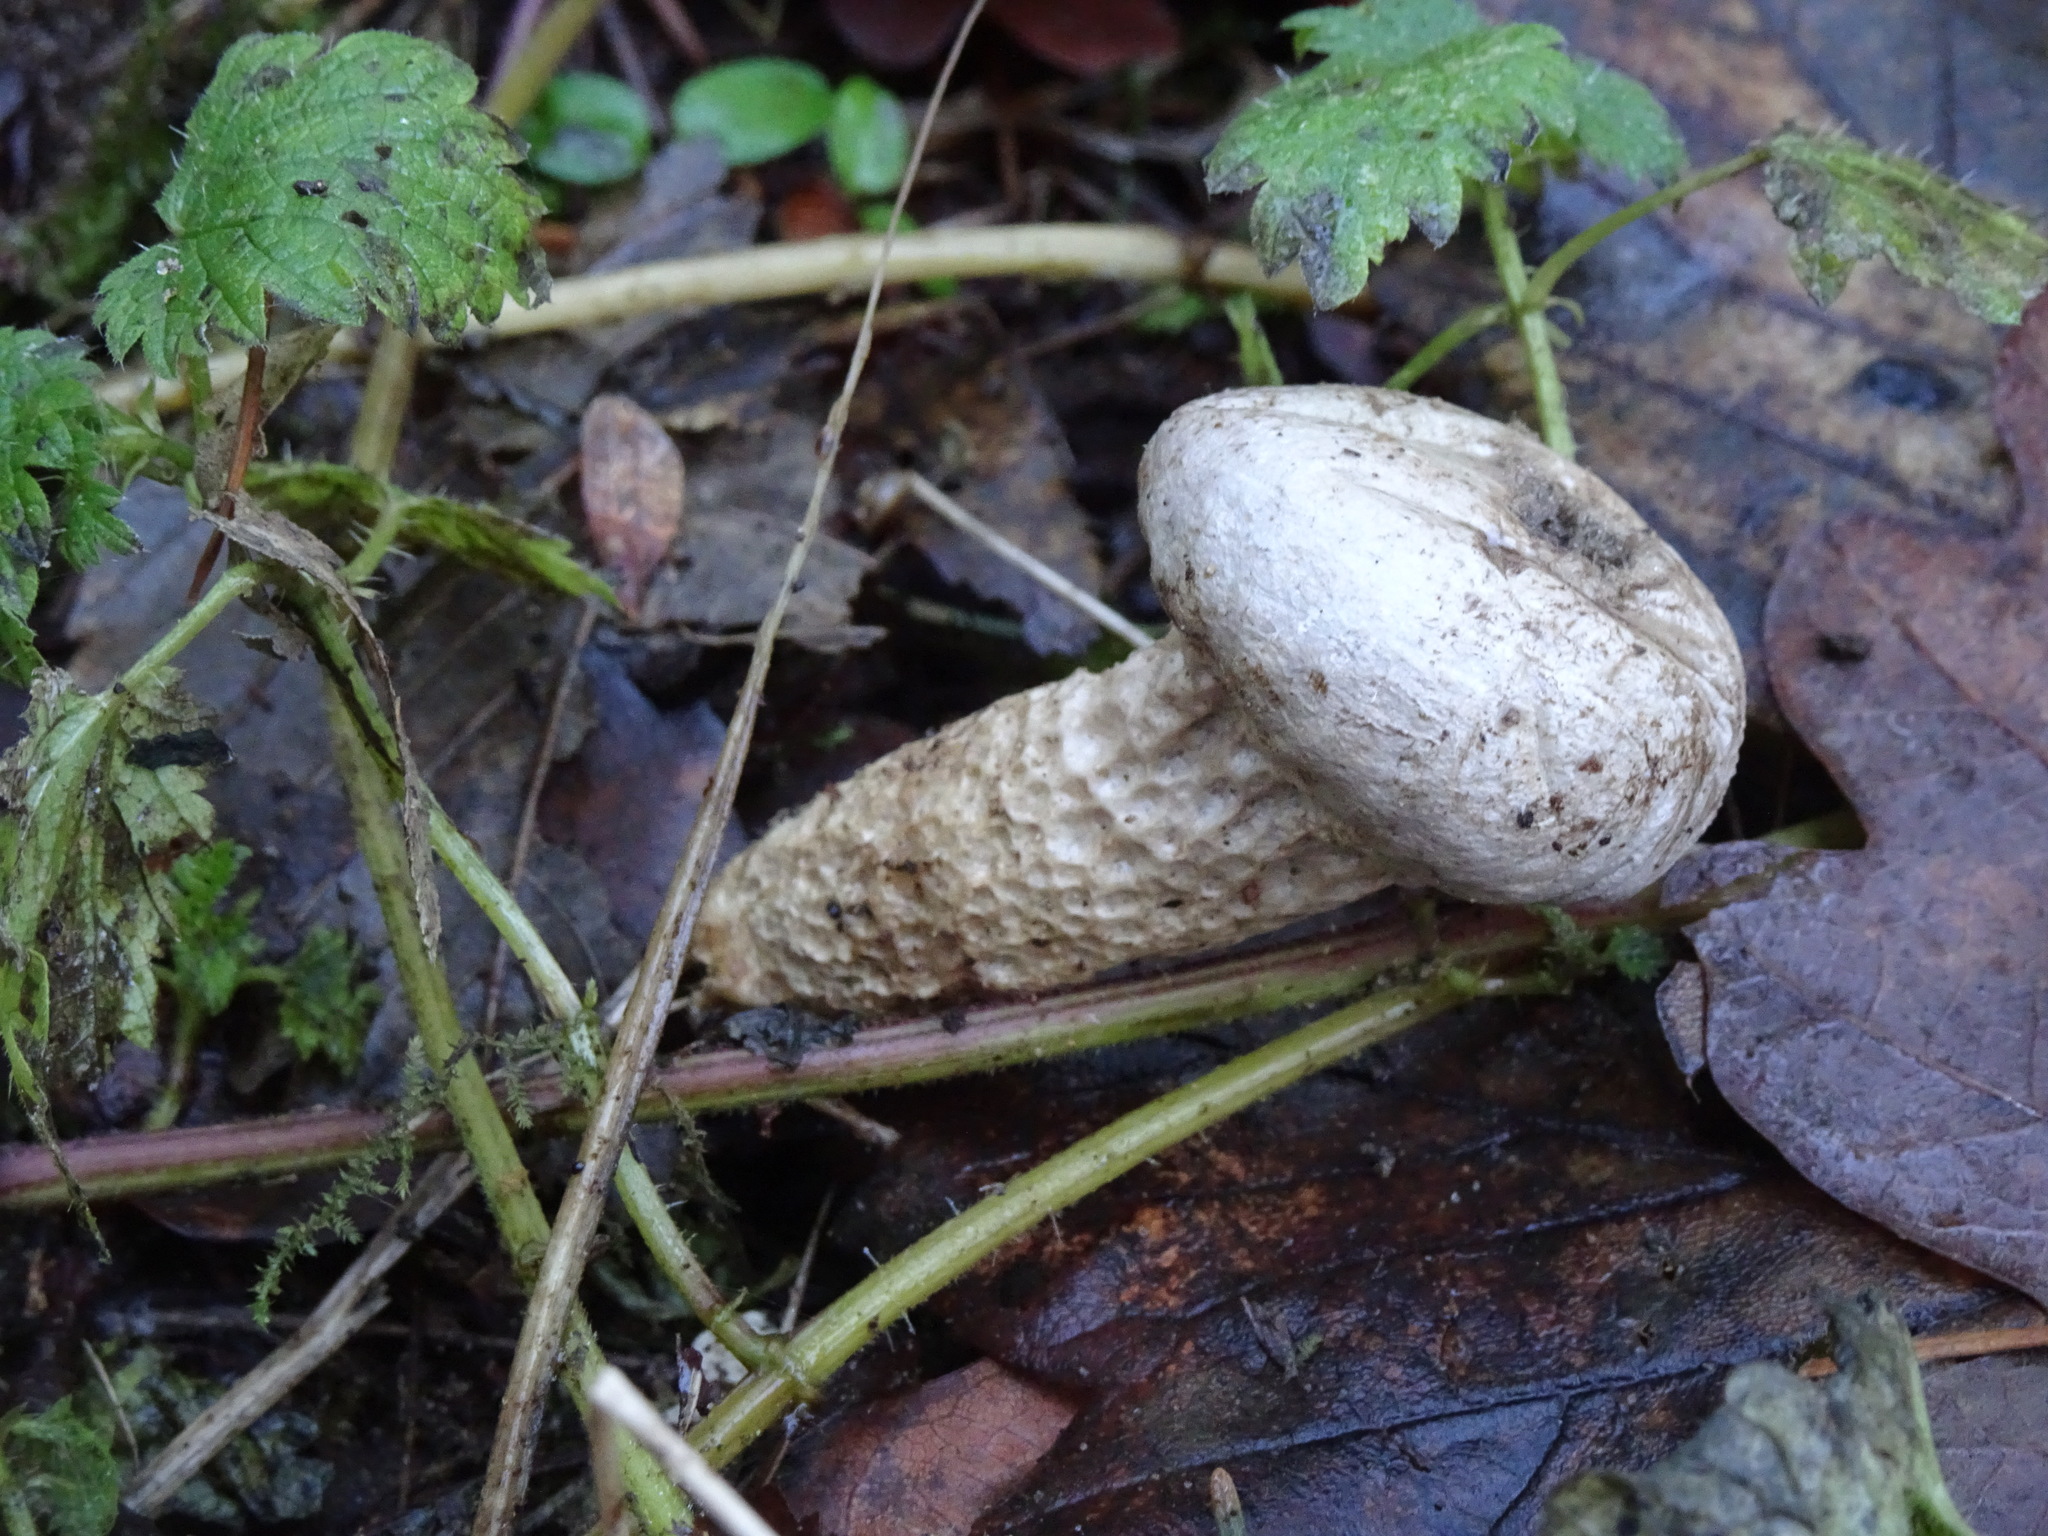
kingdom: Fungi
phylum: Basidiomycota
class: Agaricomycetes
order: Agaricales
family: Lycoperdaceae
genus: Lycoperdon
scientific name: Lycoperdon excipuliforme
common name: Pestle puffball
